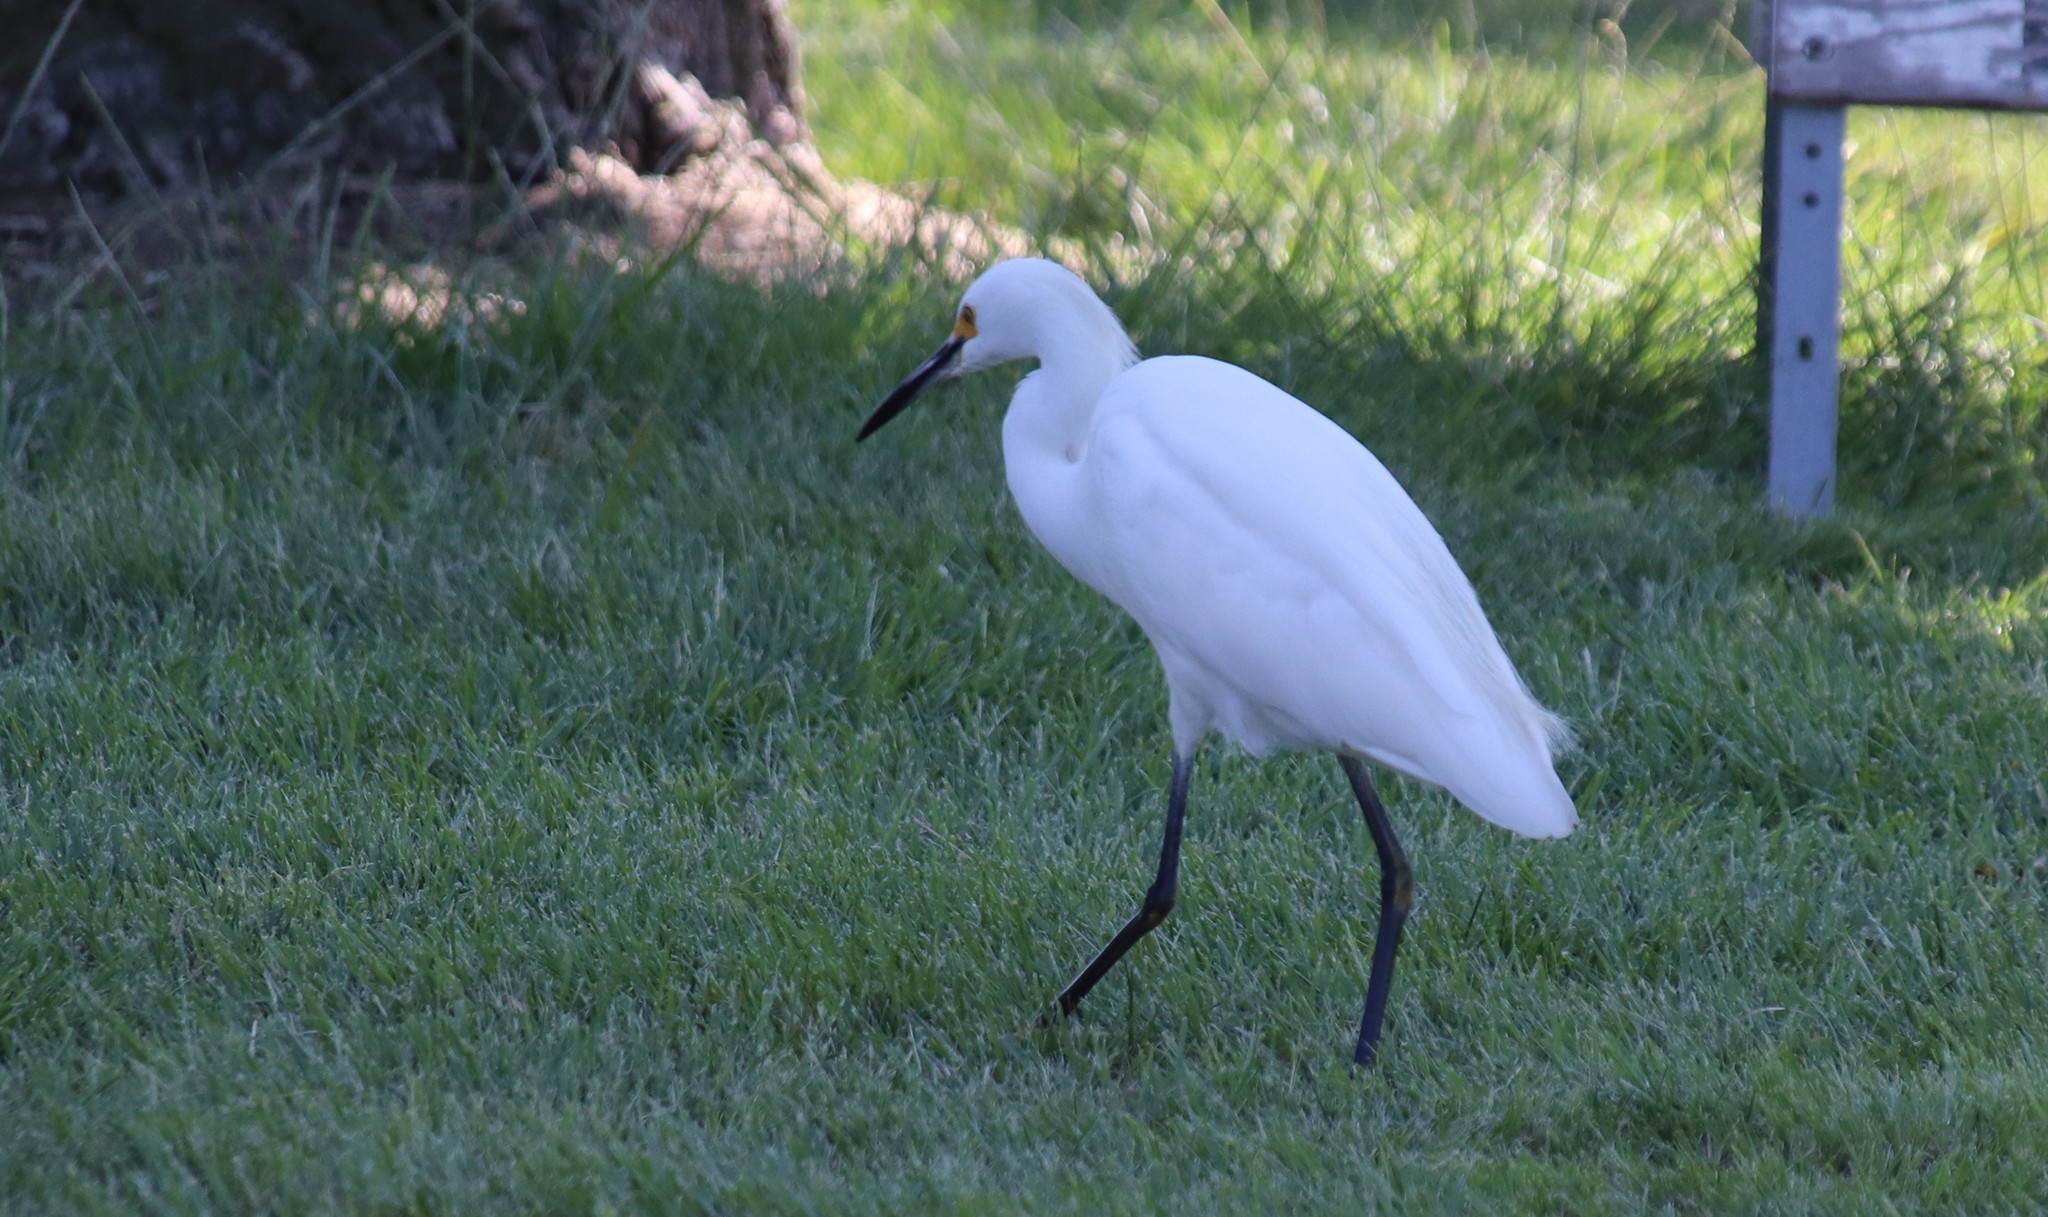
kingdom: Animalia
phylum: Chordata
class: Aves
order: Pelecaniformes
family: Ardeidae
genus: Egretta
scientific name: Egretta thula
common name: Snowy egret
